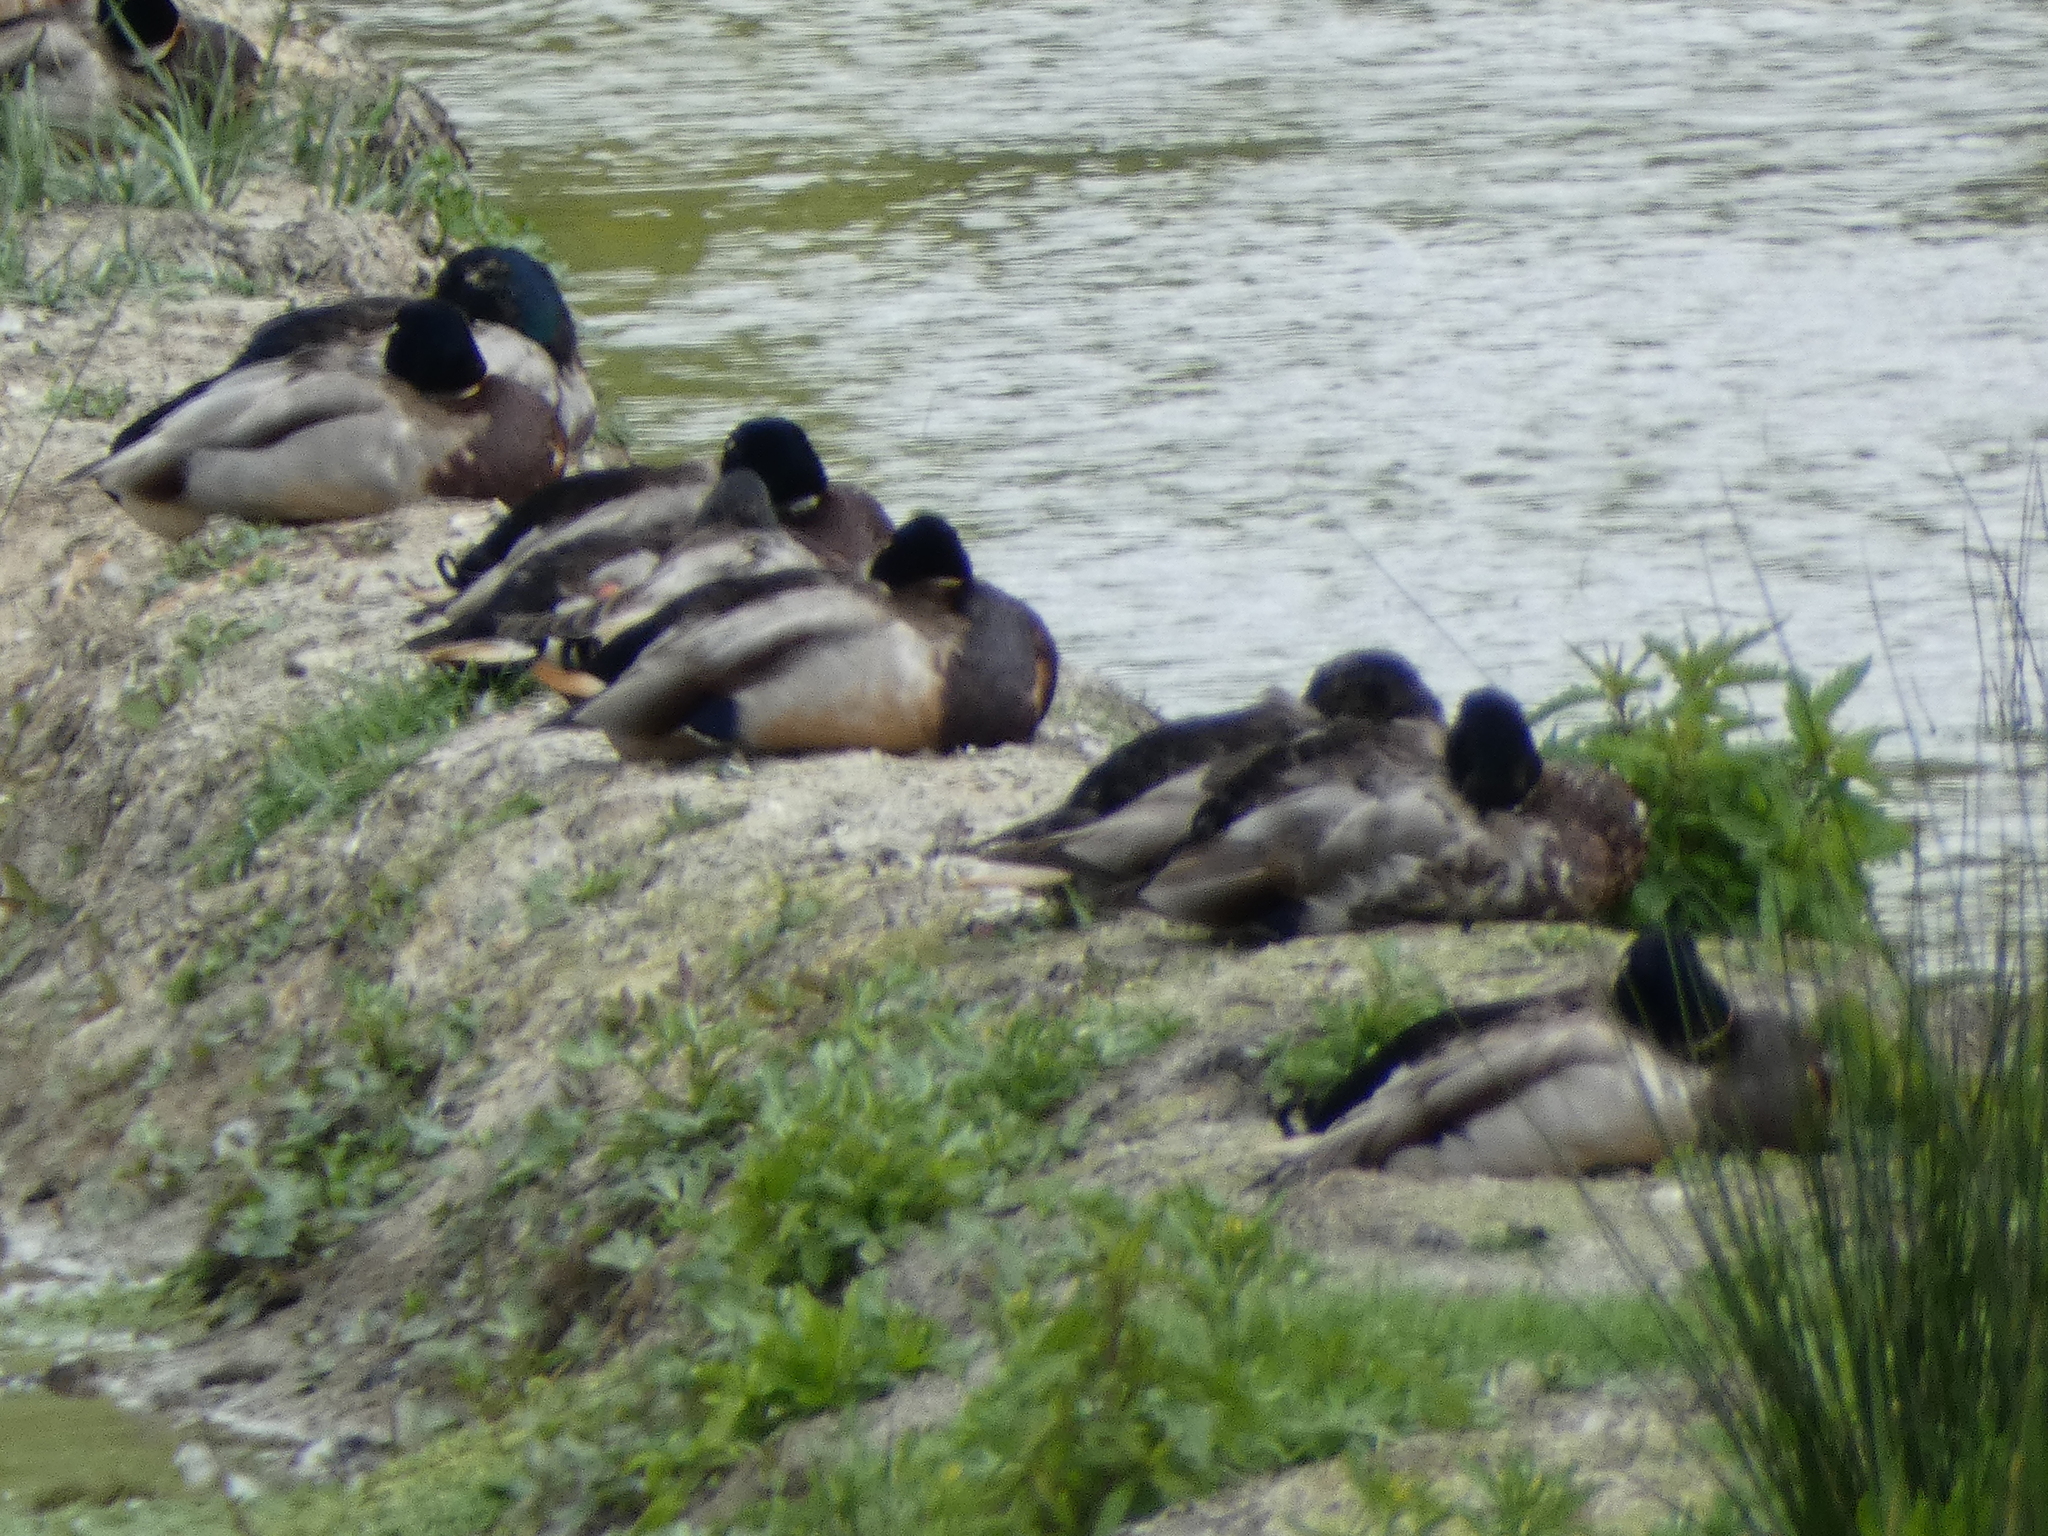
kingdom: Animalia
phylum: Chordata
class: Aves
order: Anseriformes
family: Anatidae
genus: Anas
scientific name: Anas platyrhynchos
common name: Mallard
